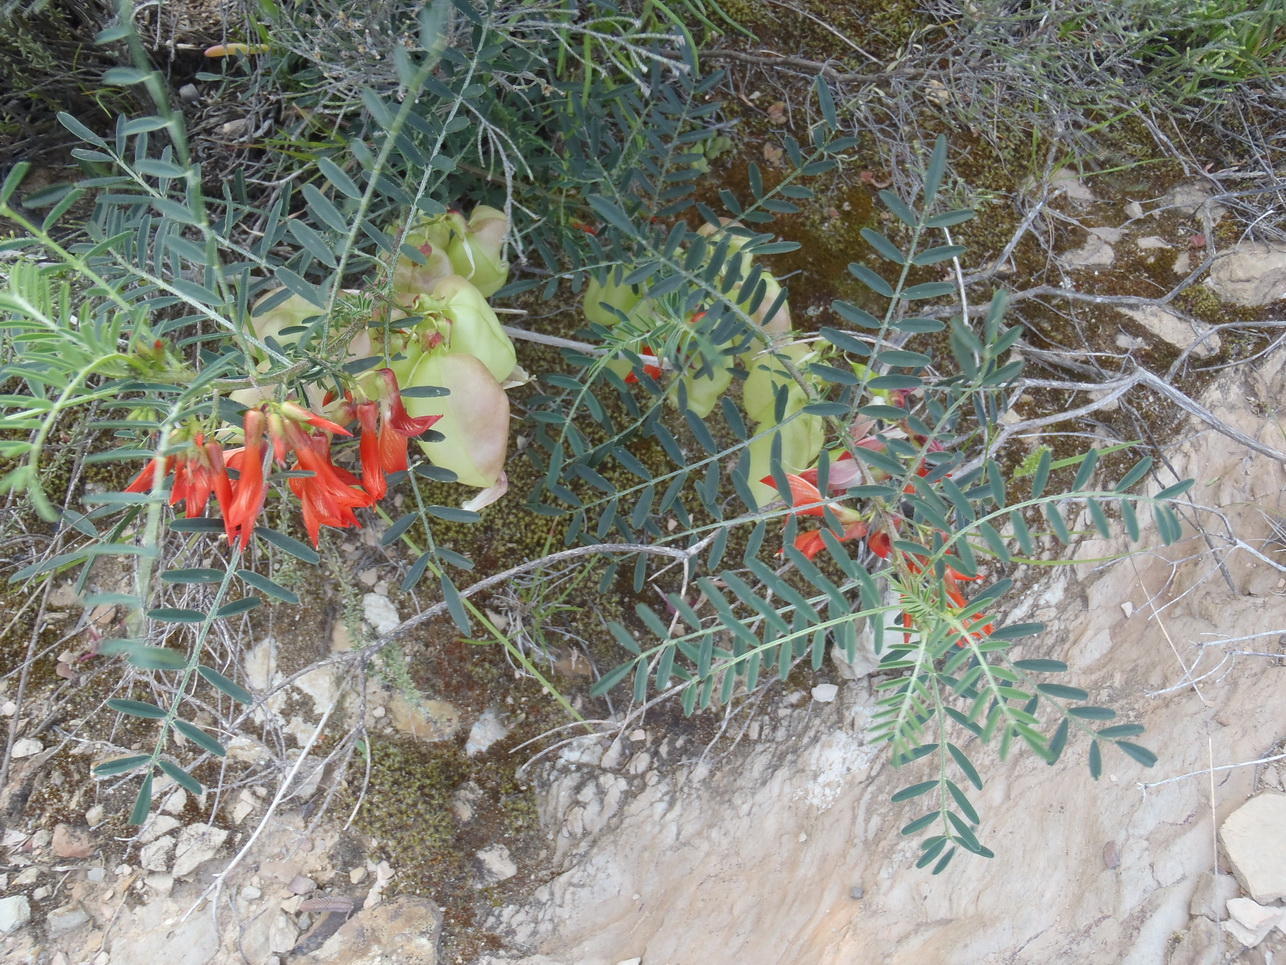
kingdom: Plantae
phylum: Tracheophyta
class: Magnoliopsida
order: Fabales
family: Fabaceae
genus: Lessertia
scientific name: Lessertia frutescens
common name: Balloon-pea
